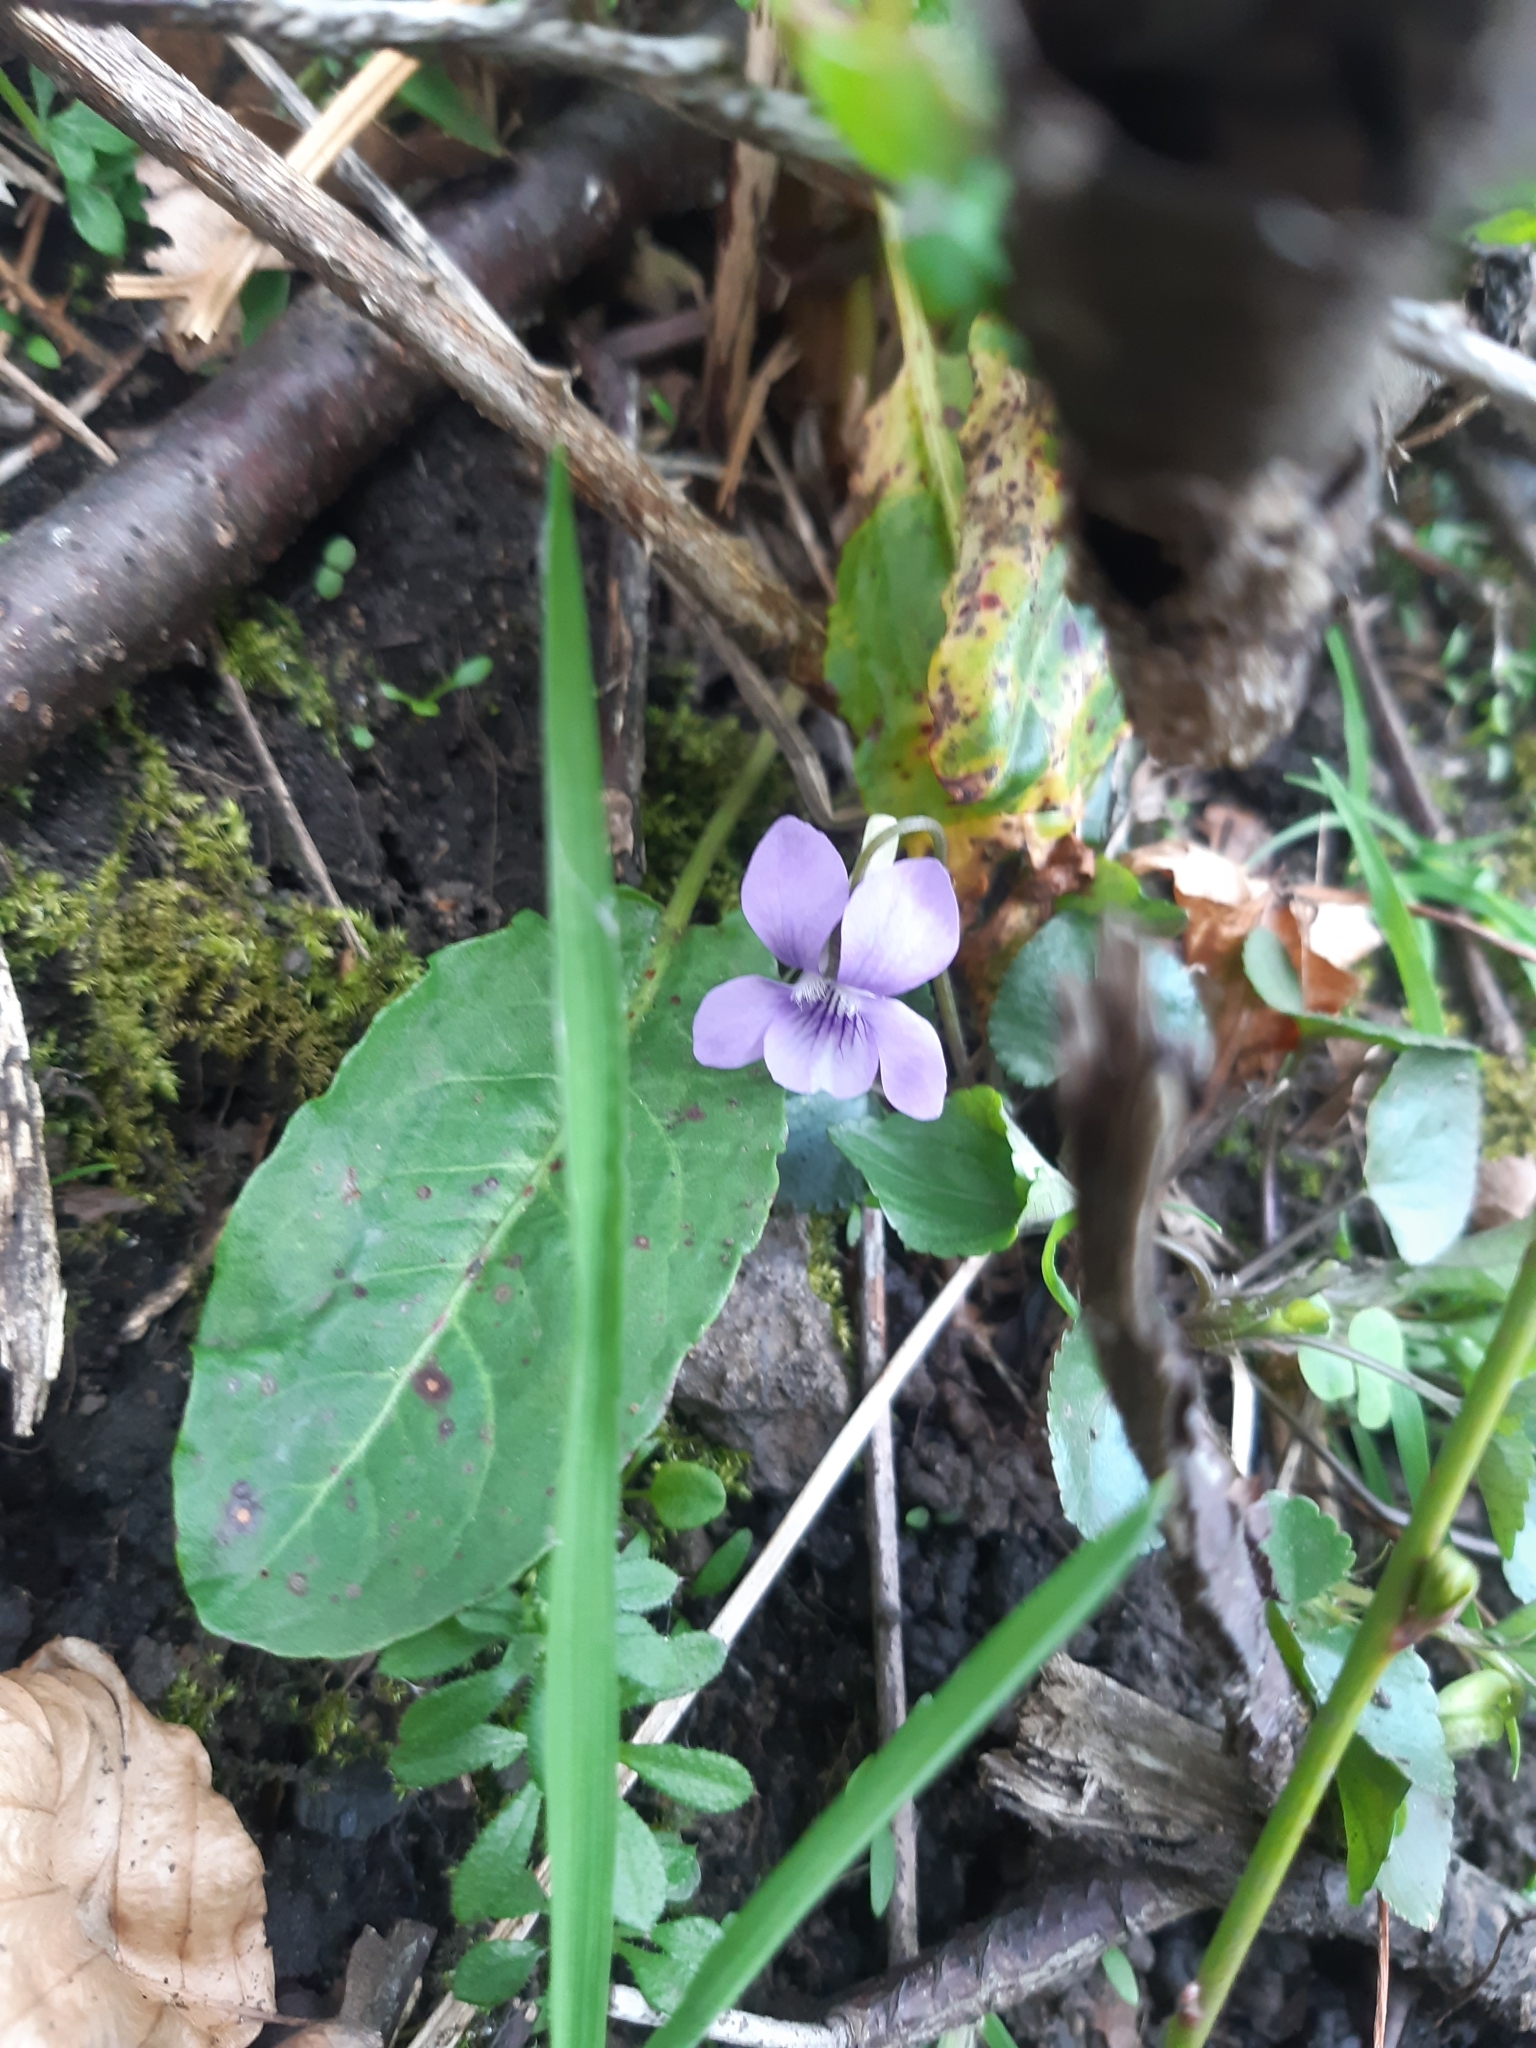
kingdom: Plantae
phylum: Tracheophyta
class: Magnoliopsida
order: Malpighiales
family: Violaceae
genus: Viola
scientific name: Viola riviniana
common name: Common dog-violet
